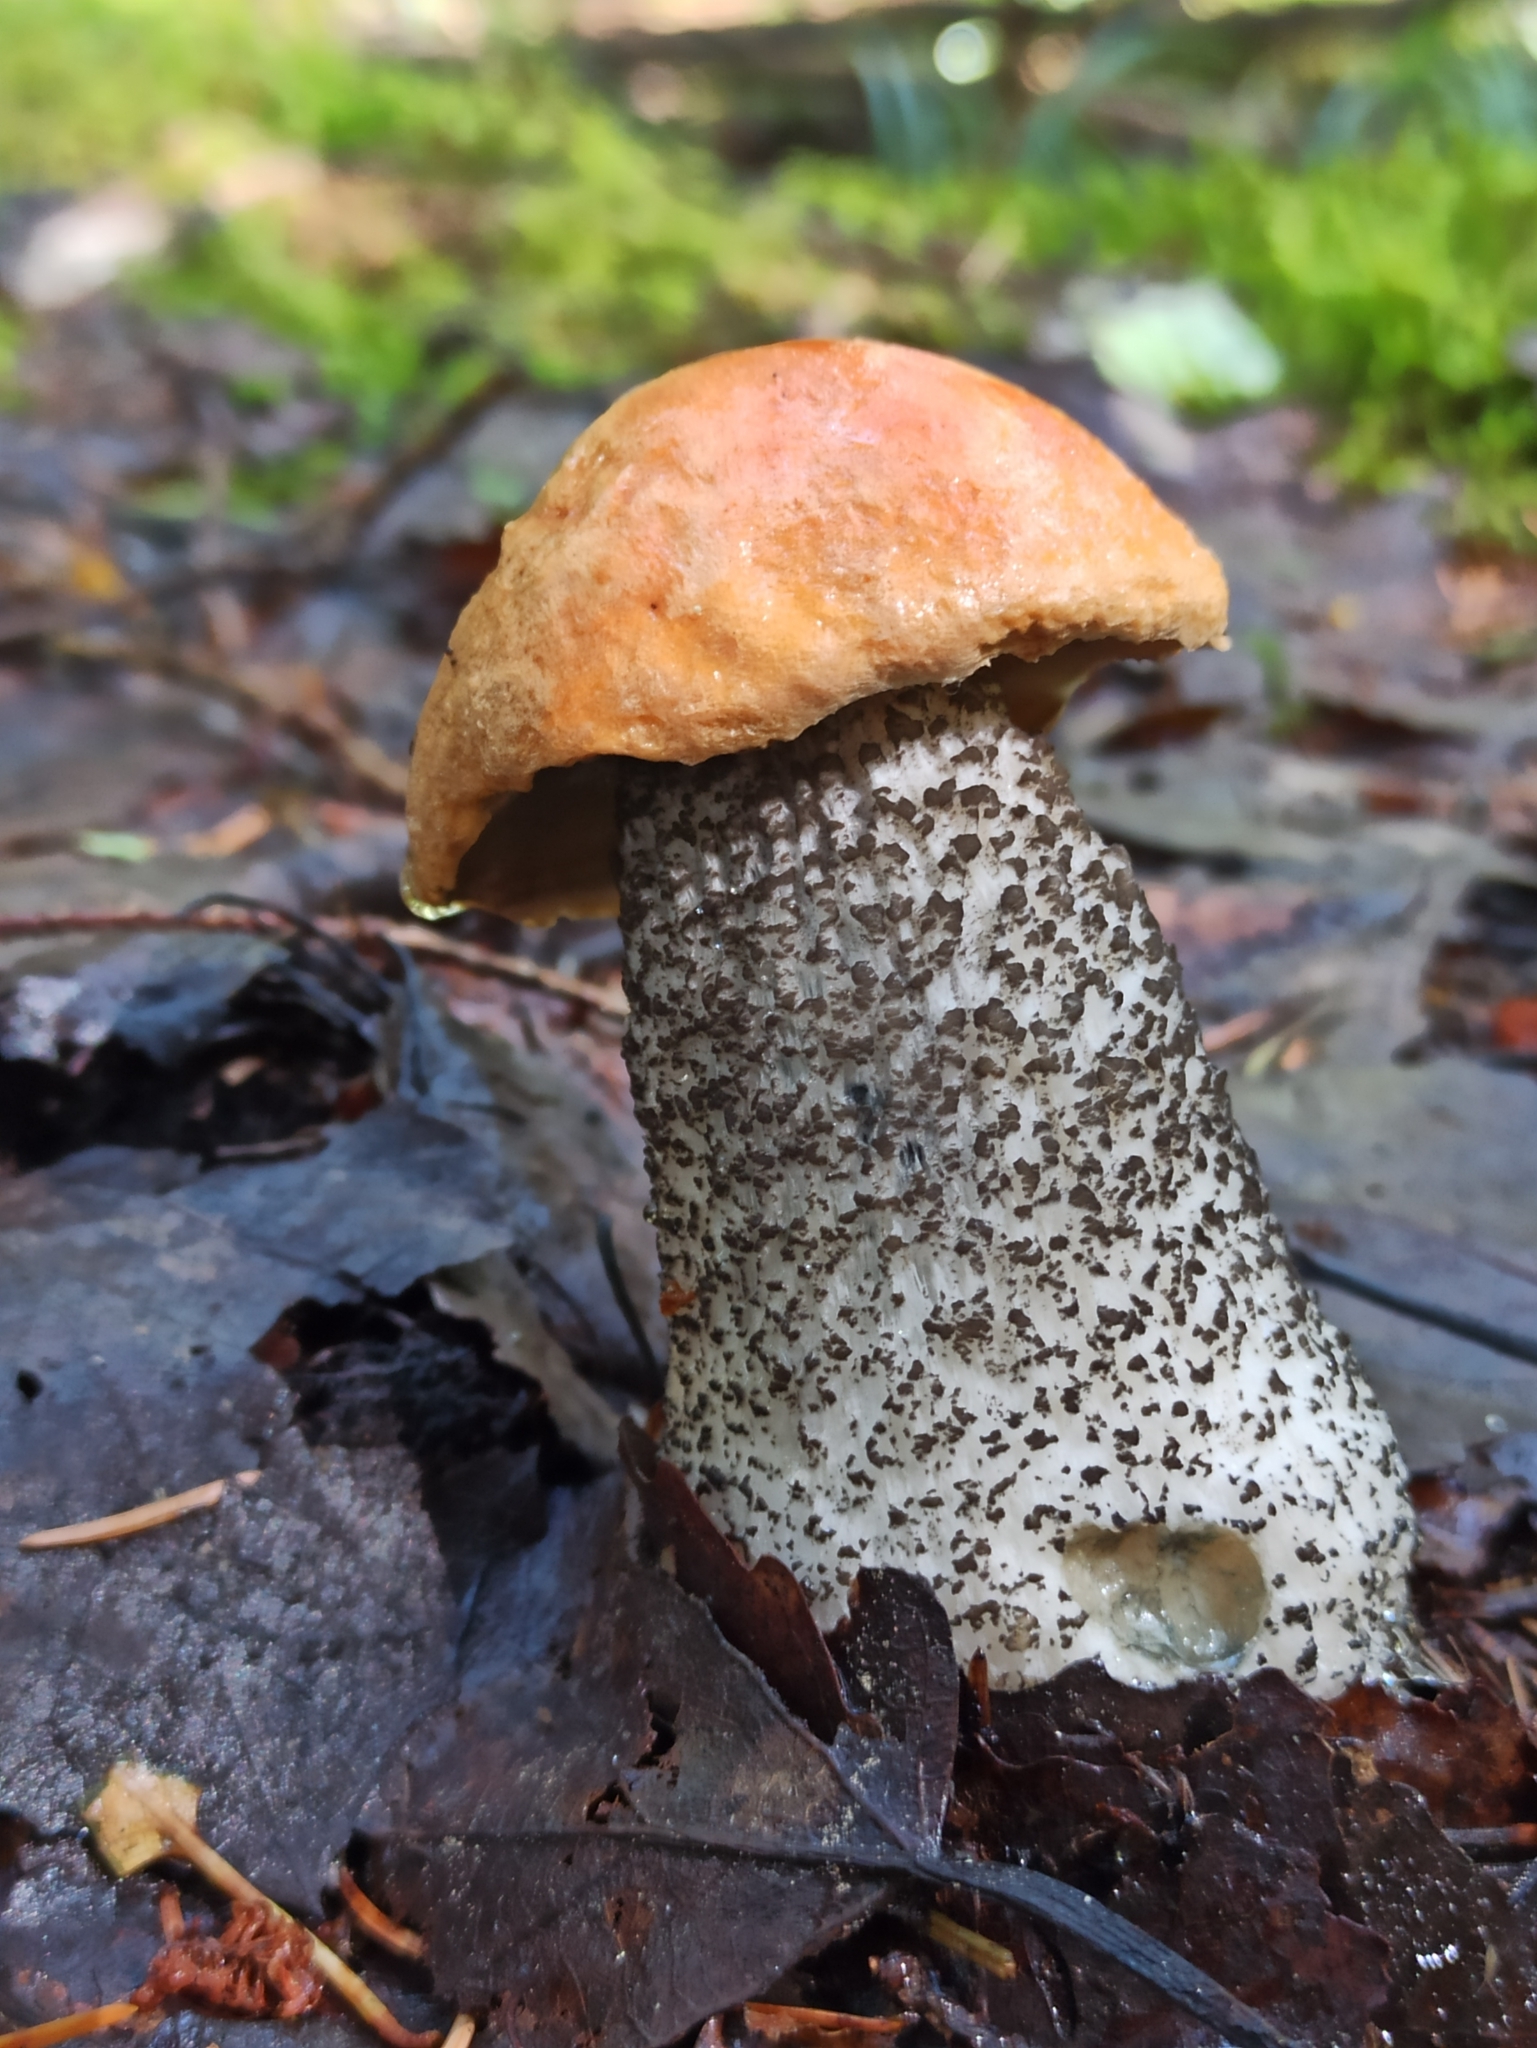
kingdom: Fungi
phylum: Basidiomycota
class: Agaricomycetes
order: Boletales
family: Boletaceae
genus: Leccinum
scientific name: Leccinum versipelle
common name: Orange birch bolete
